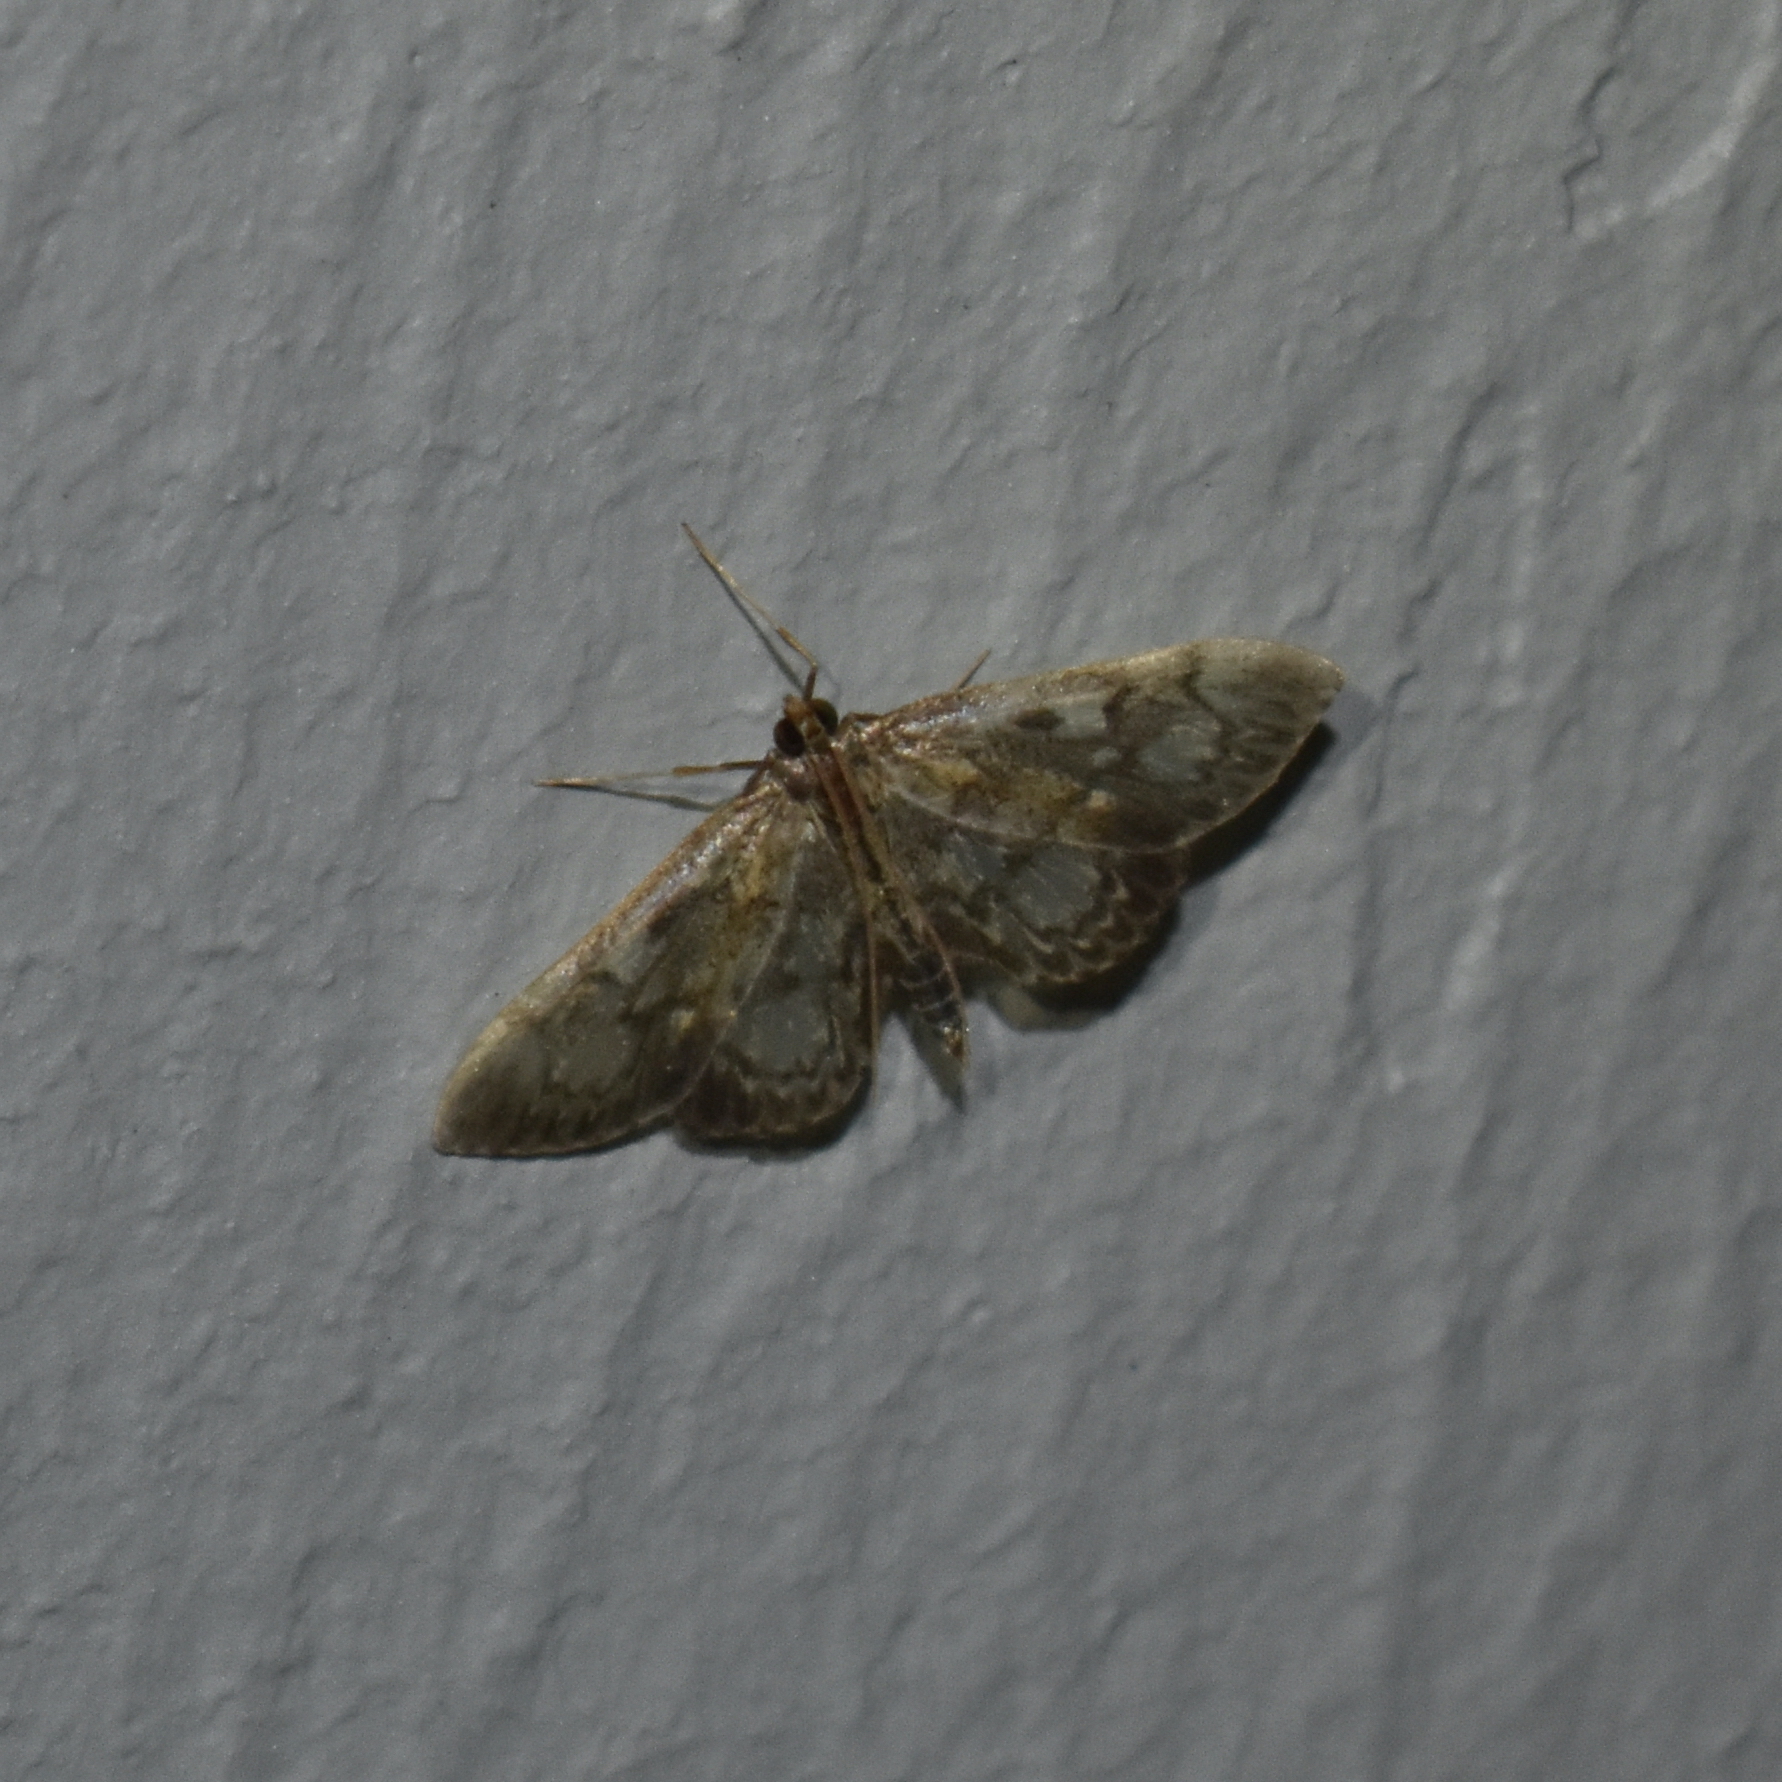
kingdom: Animalia
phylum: Arthropoda
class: Insecta
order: Lepidoptera
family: Crambidae
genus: Anania
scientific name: Anania tertialis
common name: Crowned phylctaenia moth
